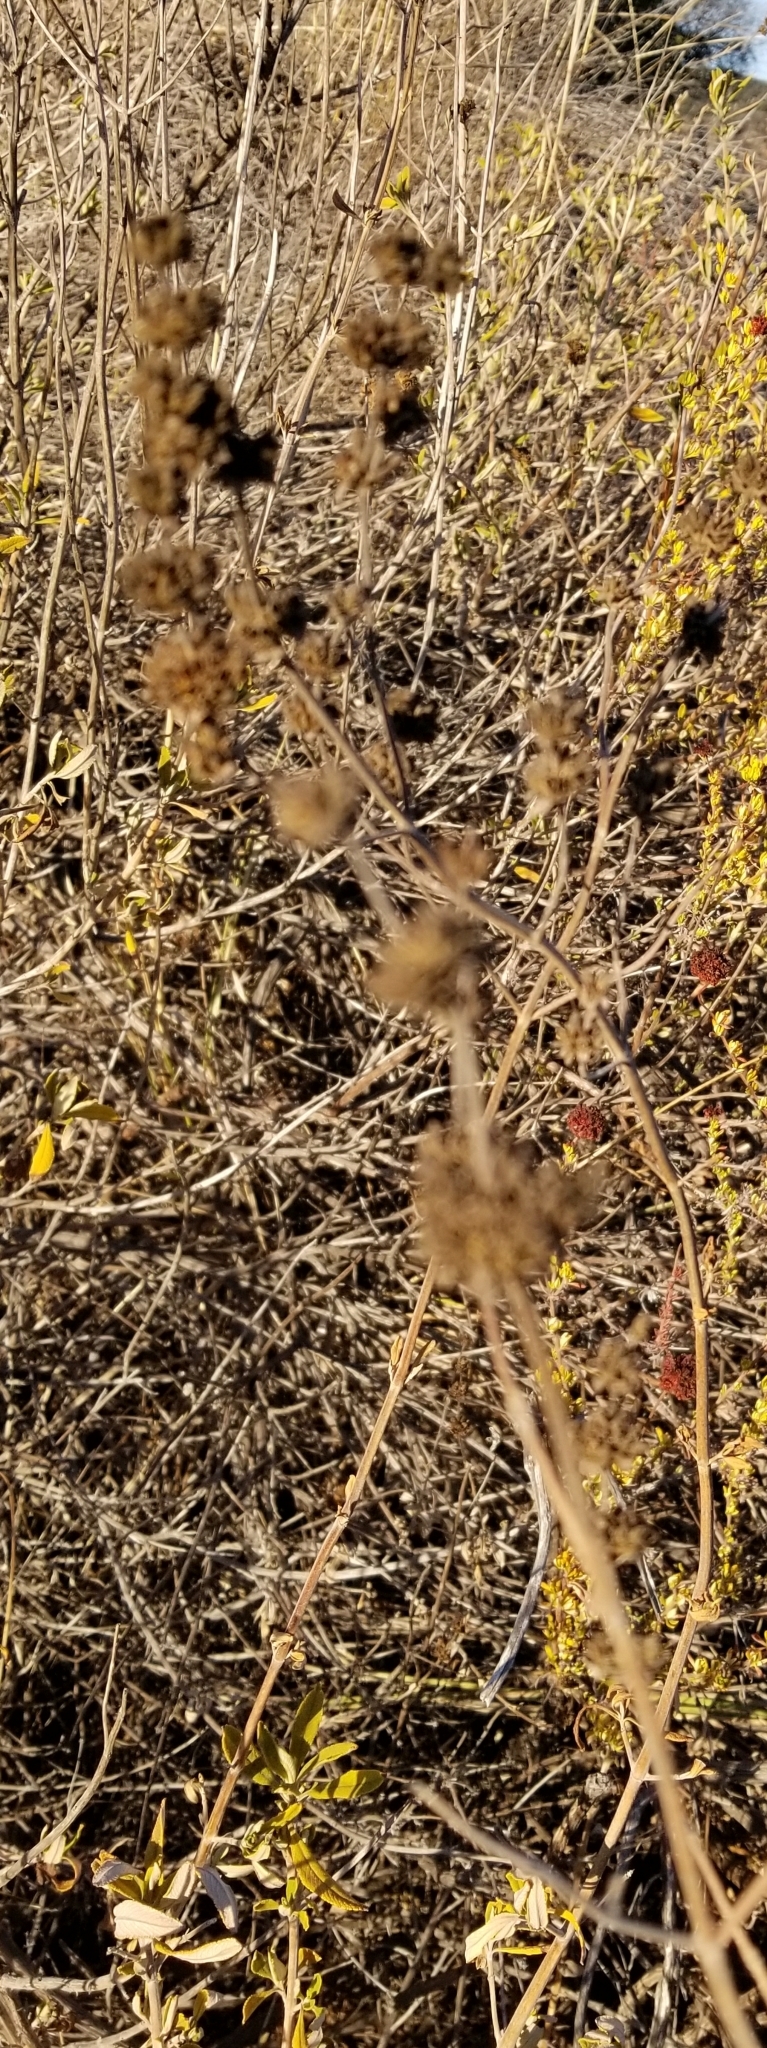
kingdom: Plantae
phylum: Tracheophyta
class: Magnoliopsida
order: Lamiales
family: Lamiaceae
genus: Salvia
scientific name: Salvia mellifera
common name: Black sage
